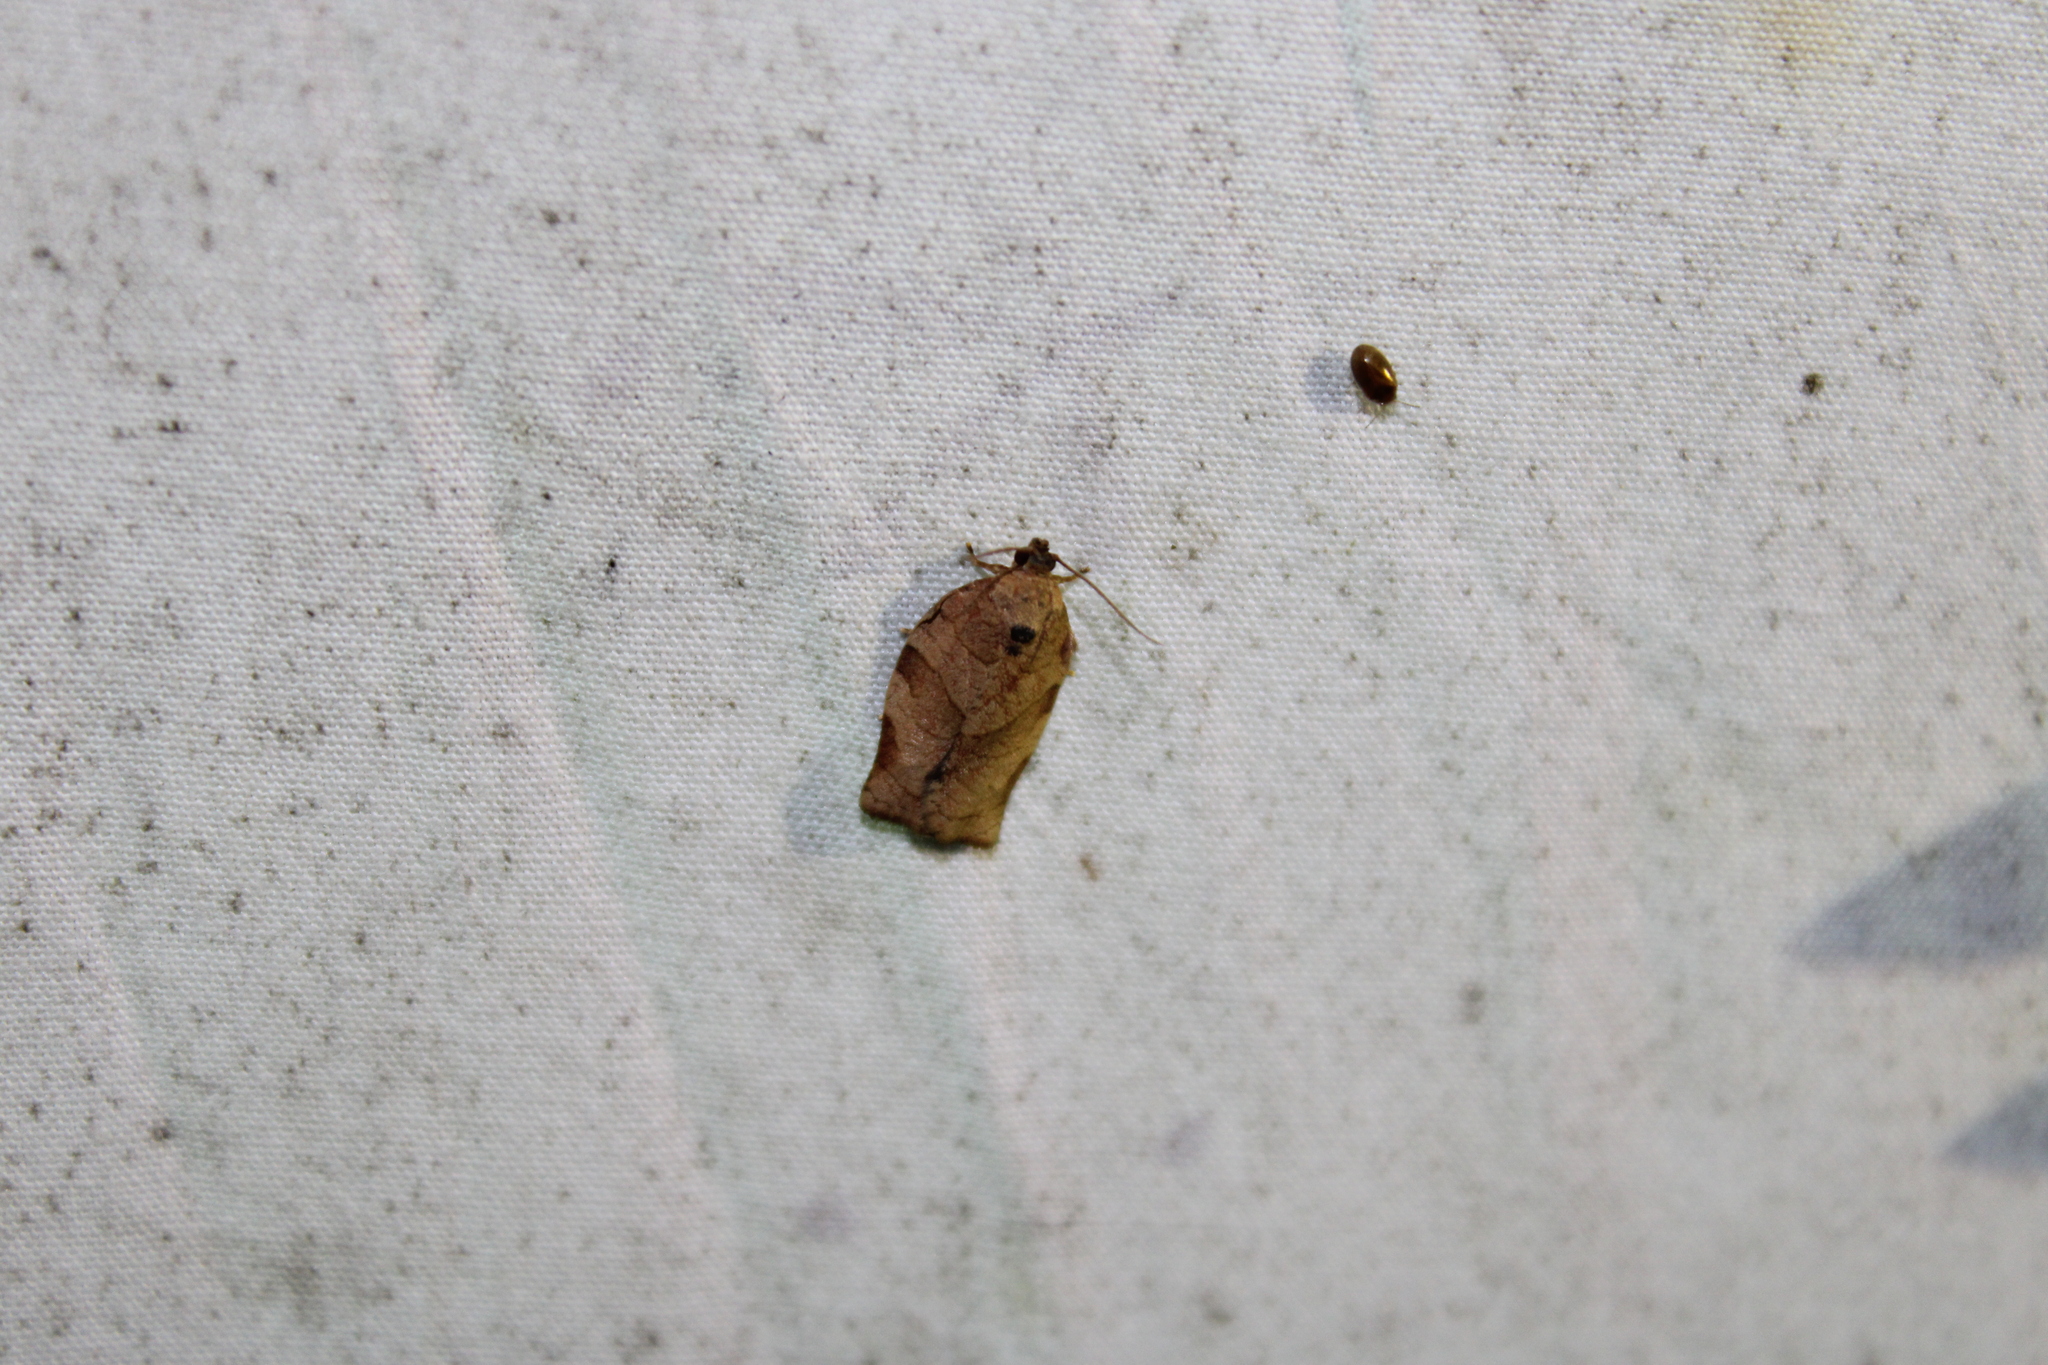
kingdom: Animalia
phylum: Arthropoda
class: Insecta
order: Lepidoptera
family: Tortricidae
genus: Choristoneura
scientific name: Choristoneura rosaceana
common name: Oblique-banded leafroller moth
